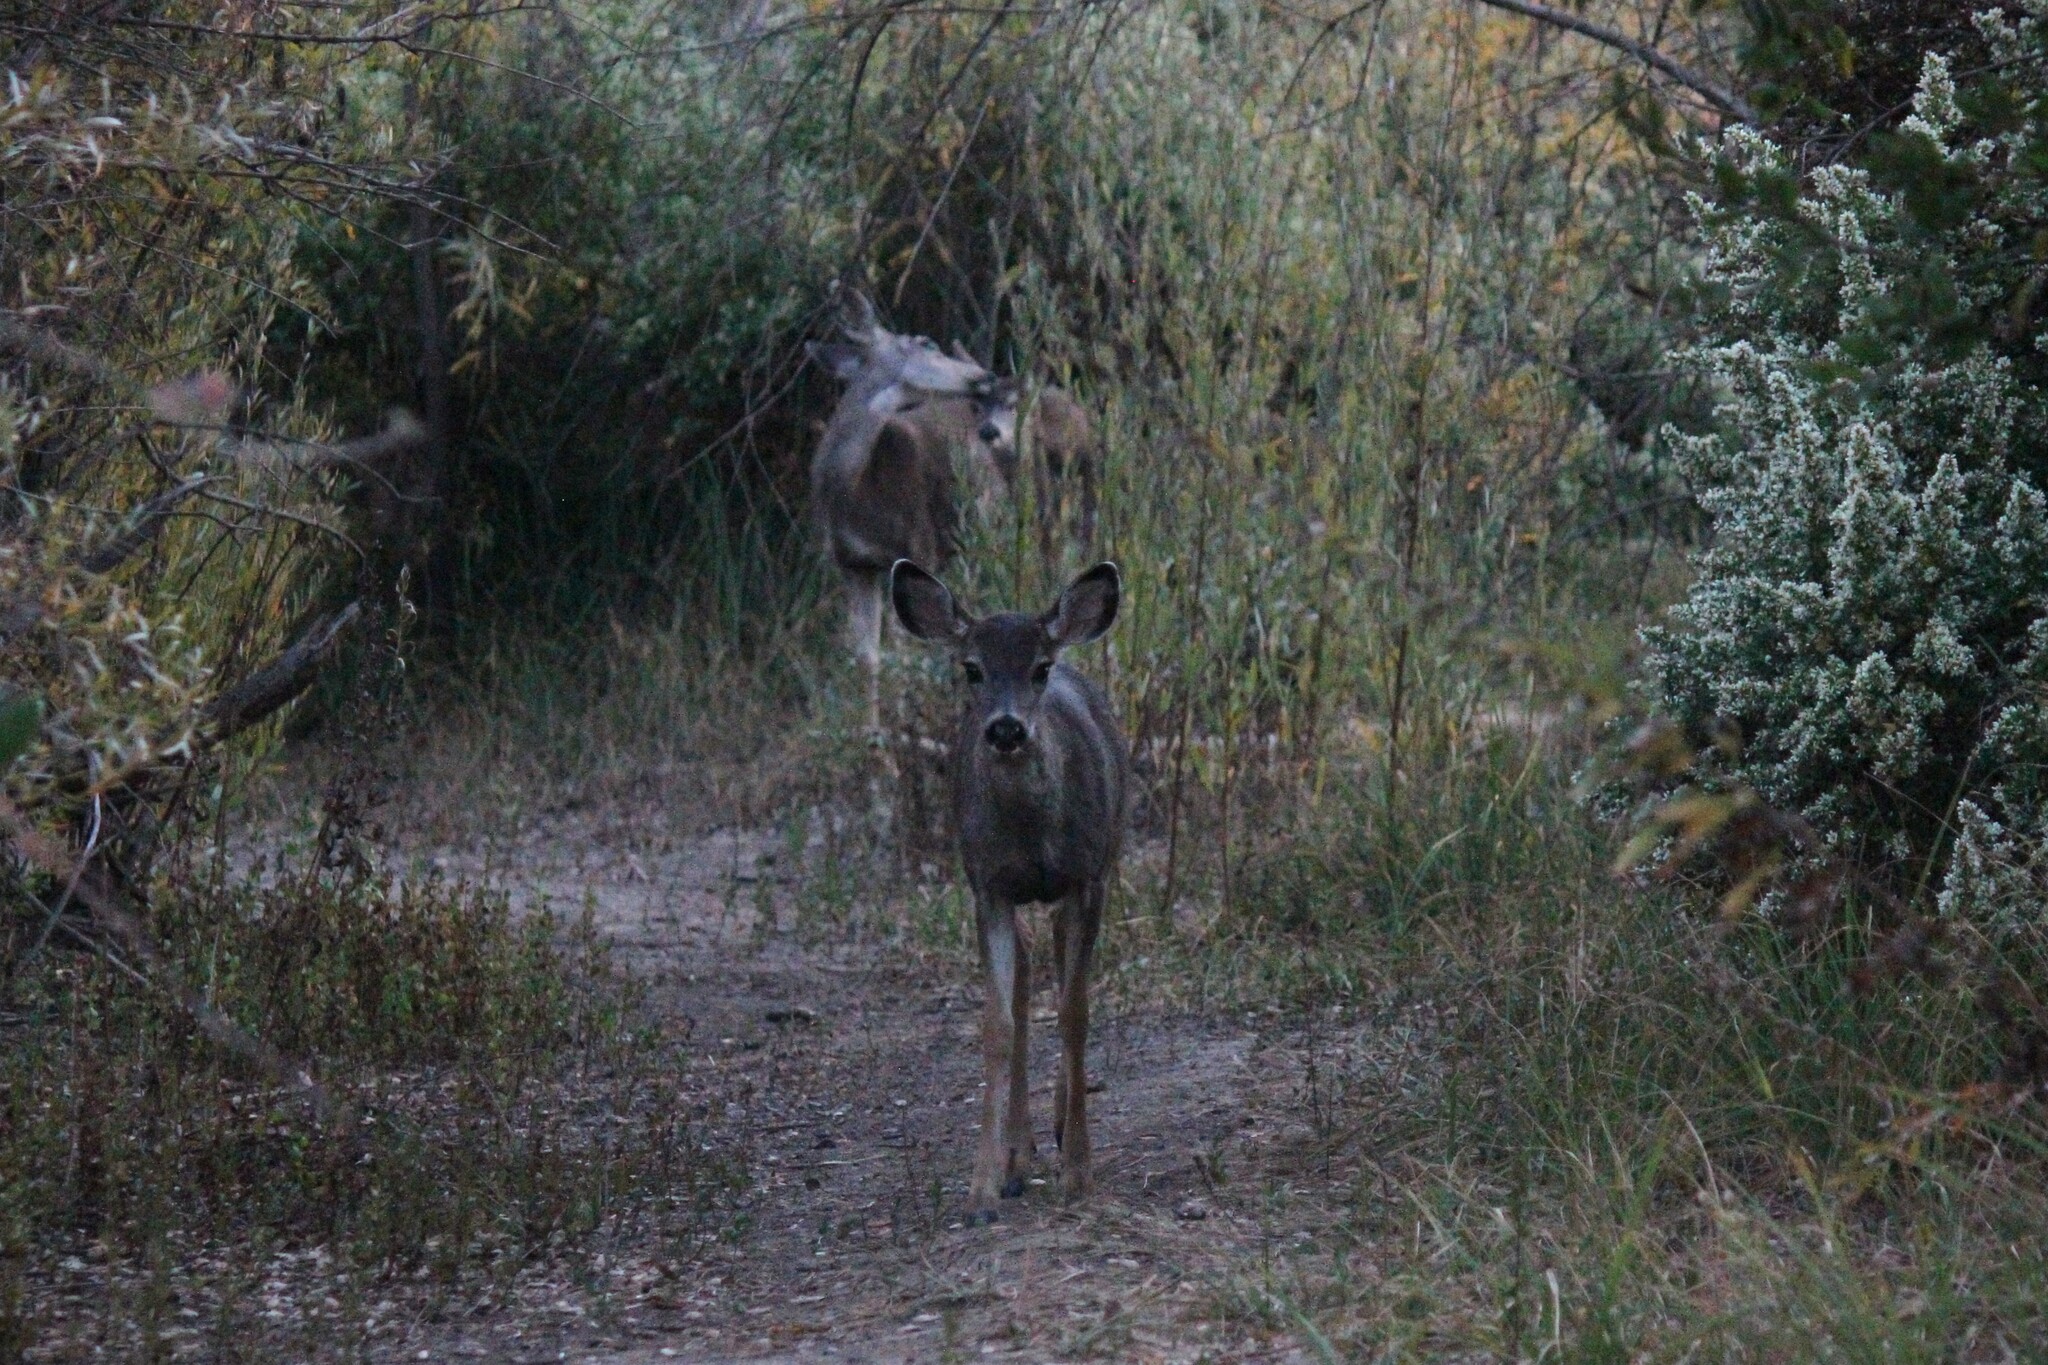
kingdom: Animalia
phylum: Chordata
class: Mammalia
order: Artiodactyla
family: Cervidae
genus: Odocoileus
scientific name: Odocoileus hemionus
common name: Mule deer
